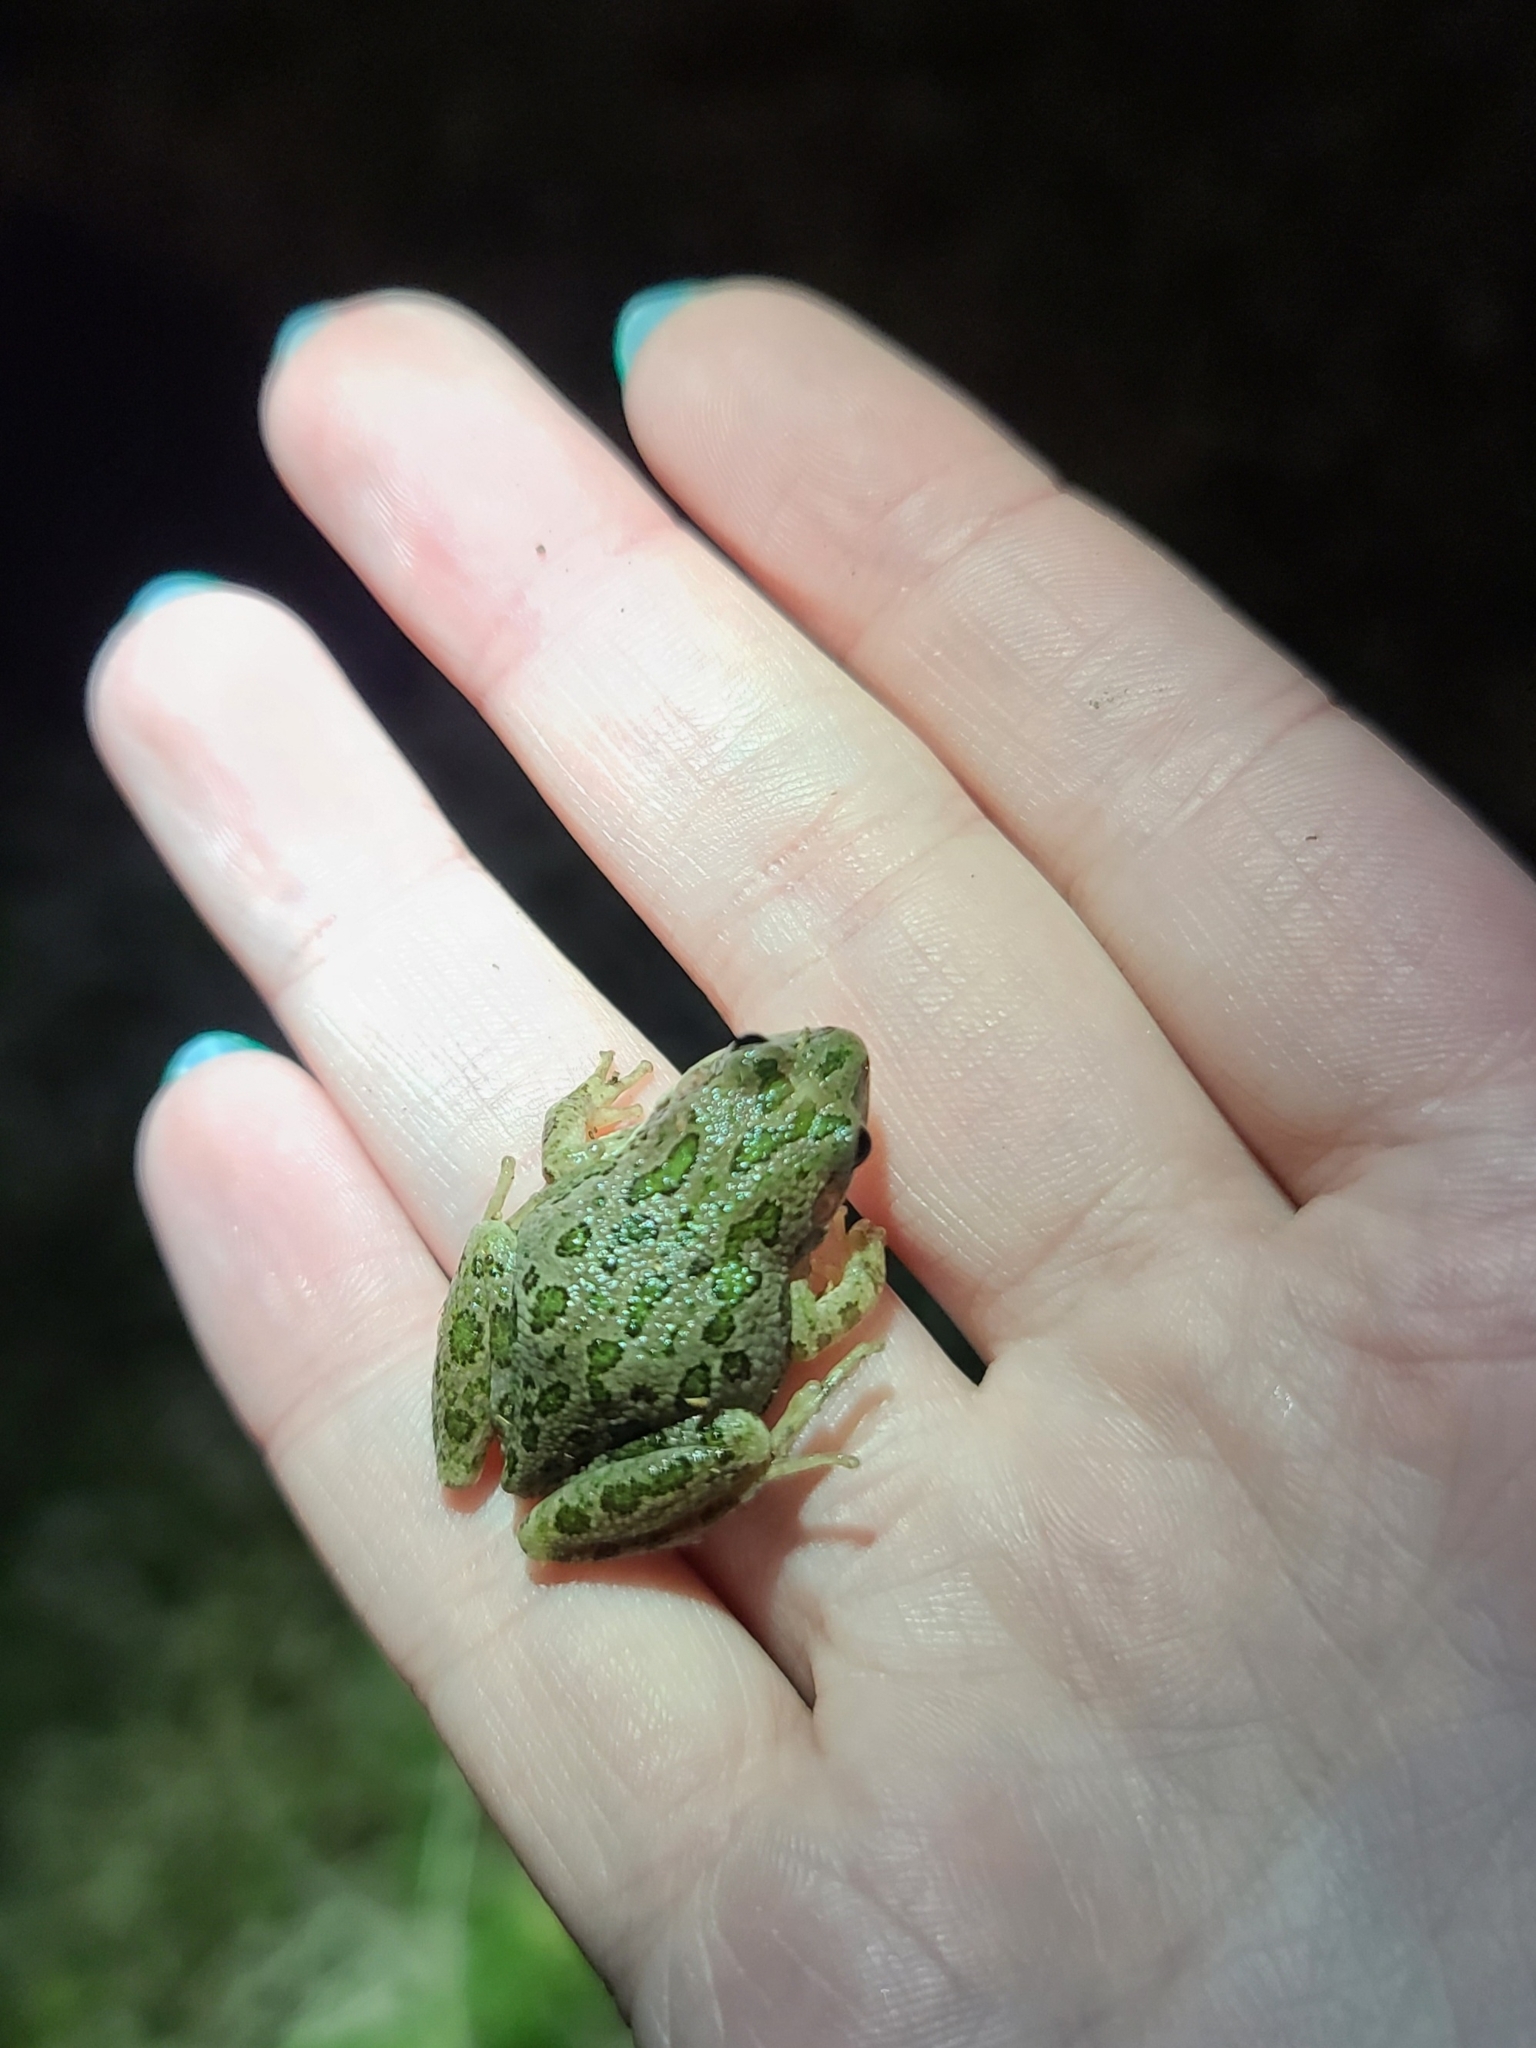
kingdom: Animalia
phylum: Chordata
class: Amphibia
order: Anura
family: Hylidae
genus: Pseudacris
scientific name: Pseudacris clarkii
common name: Spotted chorus frog
